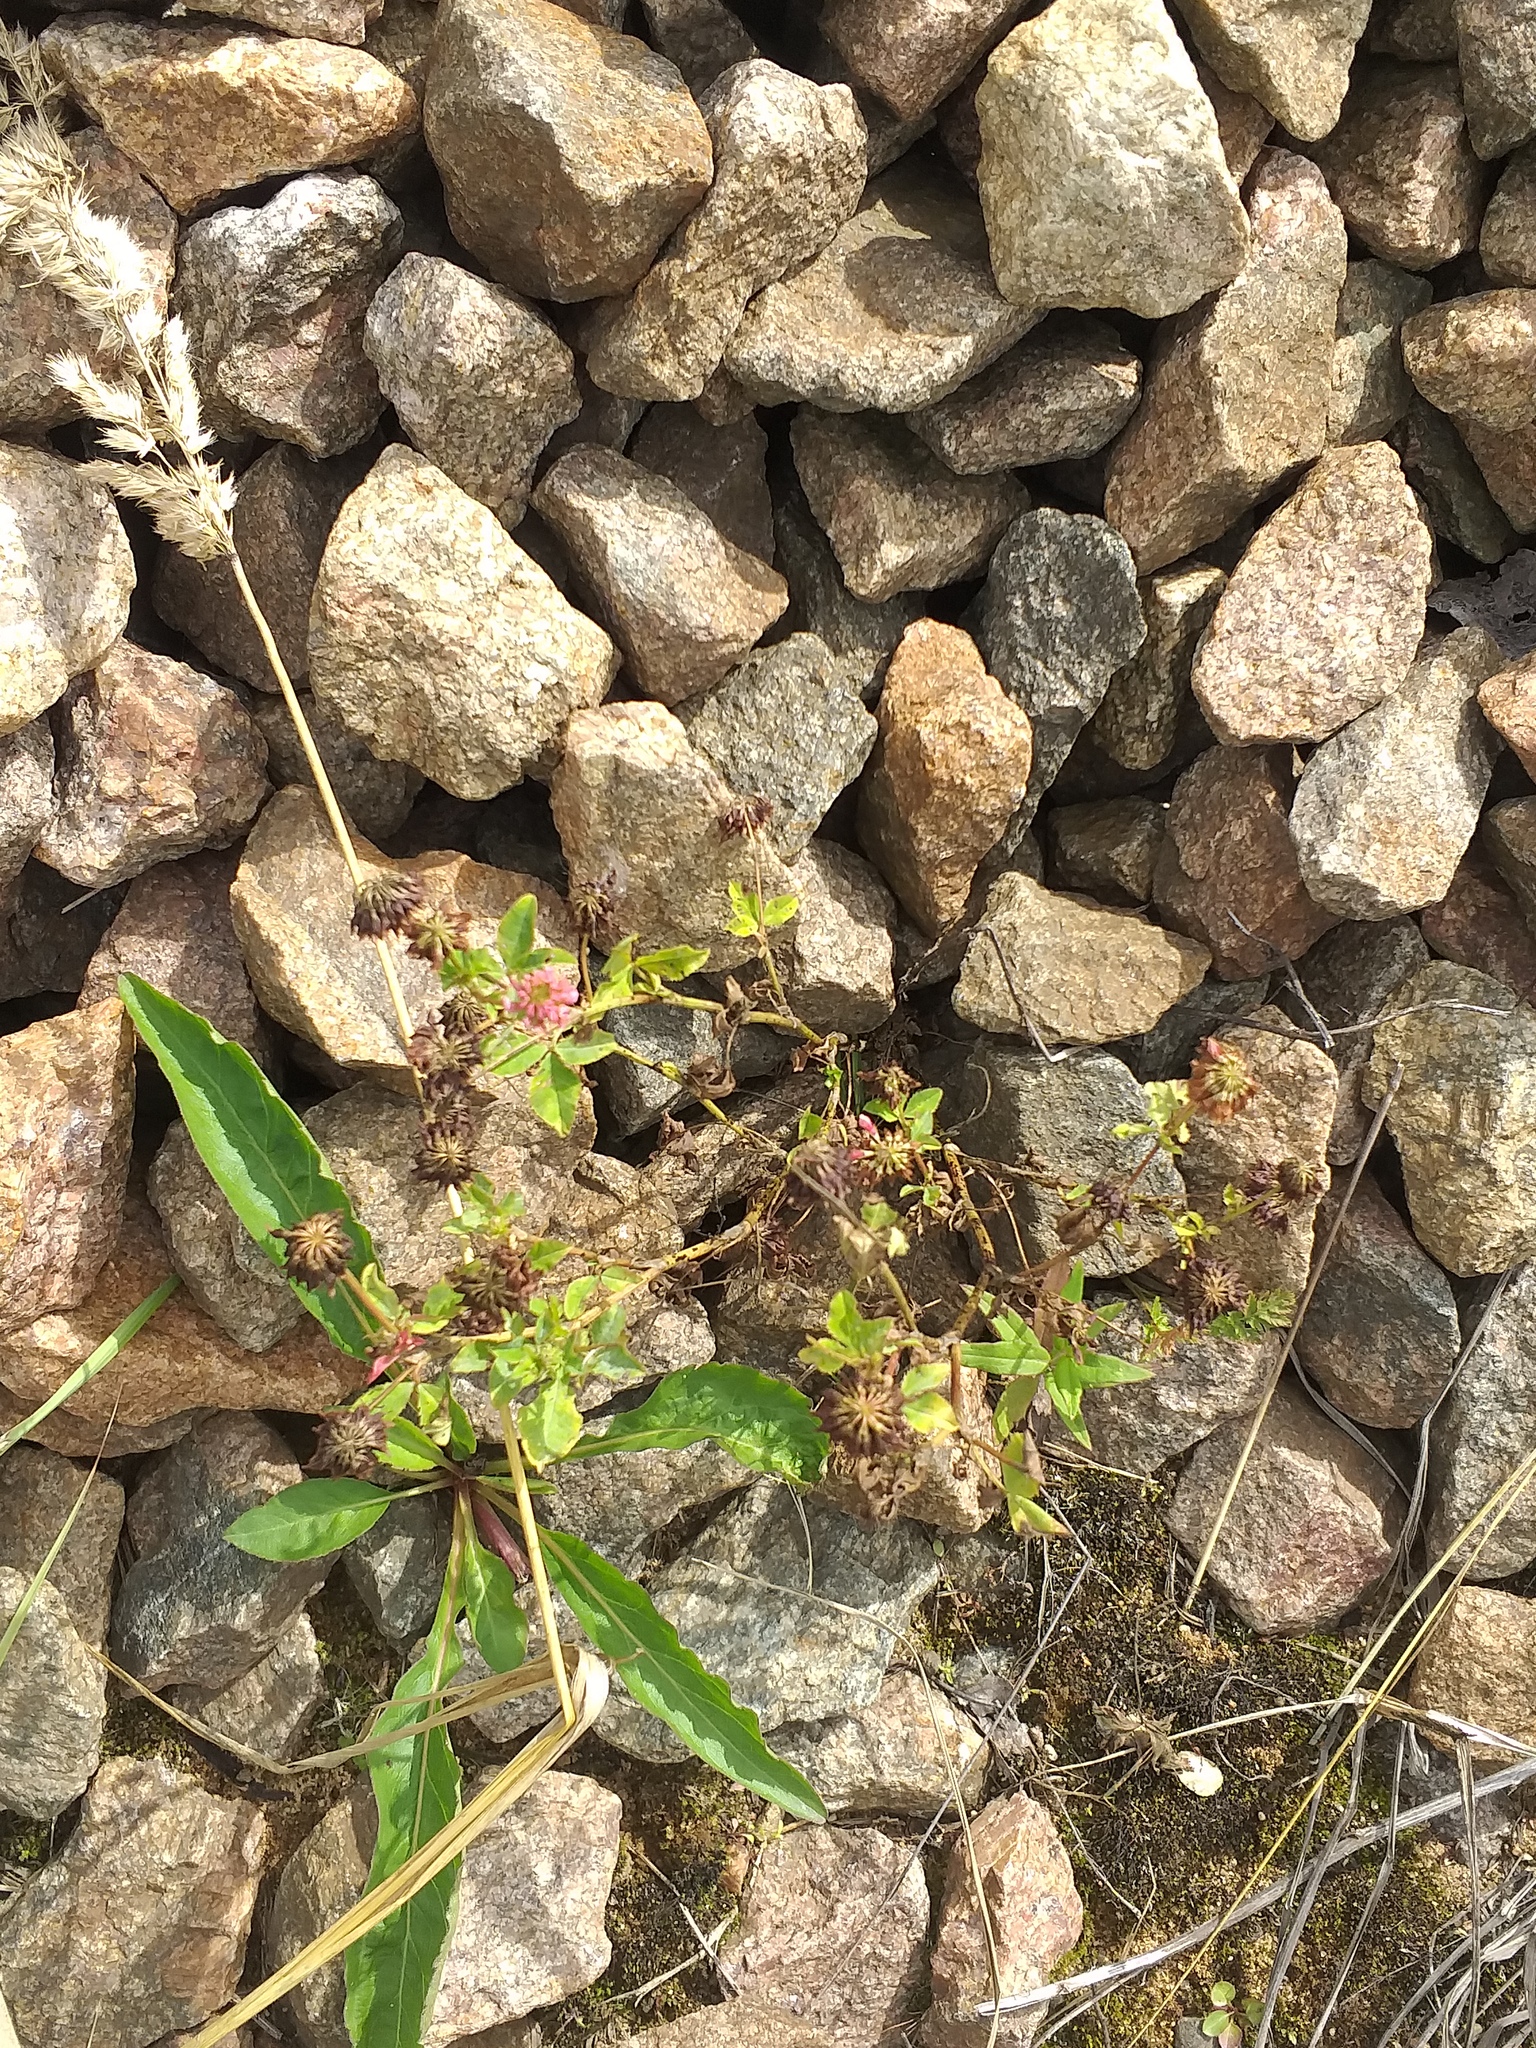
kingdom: Plantae
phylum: Tracheophyta
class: Magnoliopsida
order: Fabales
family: Fabaceae
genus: Trifolium
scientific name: Trifolium hybridum
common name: Alsike clover
